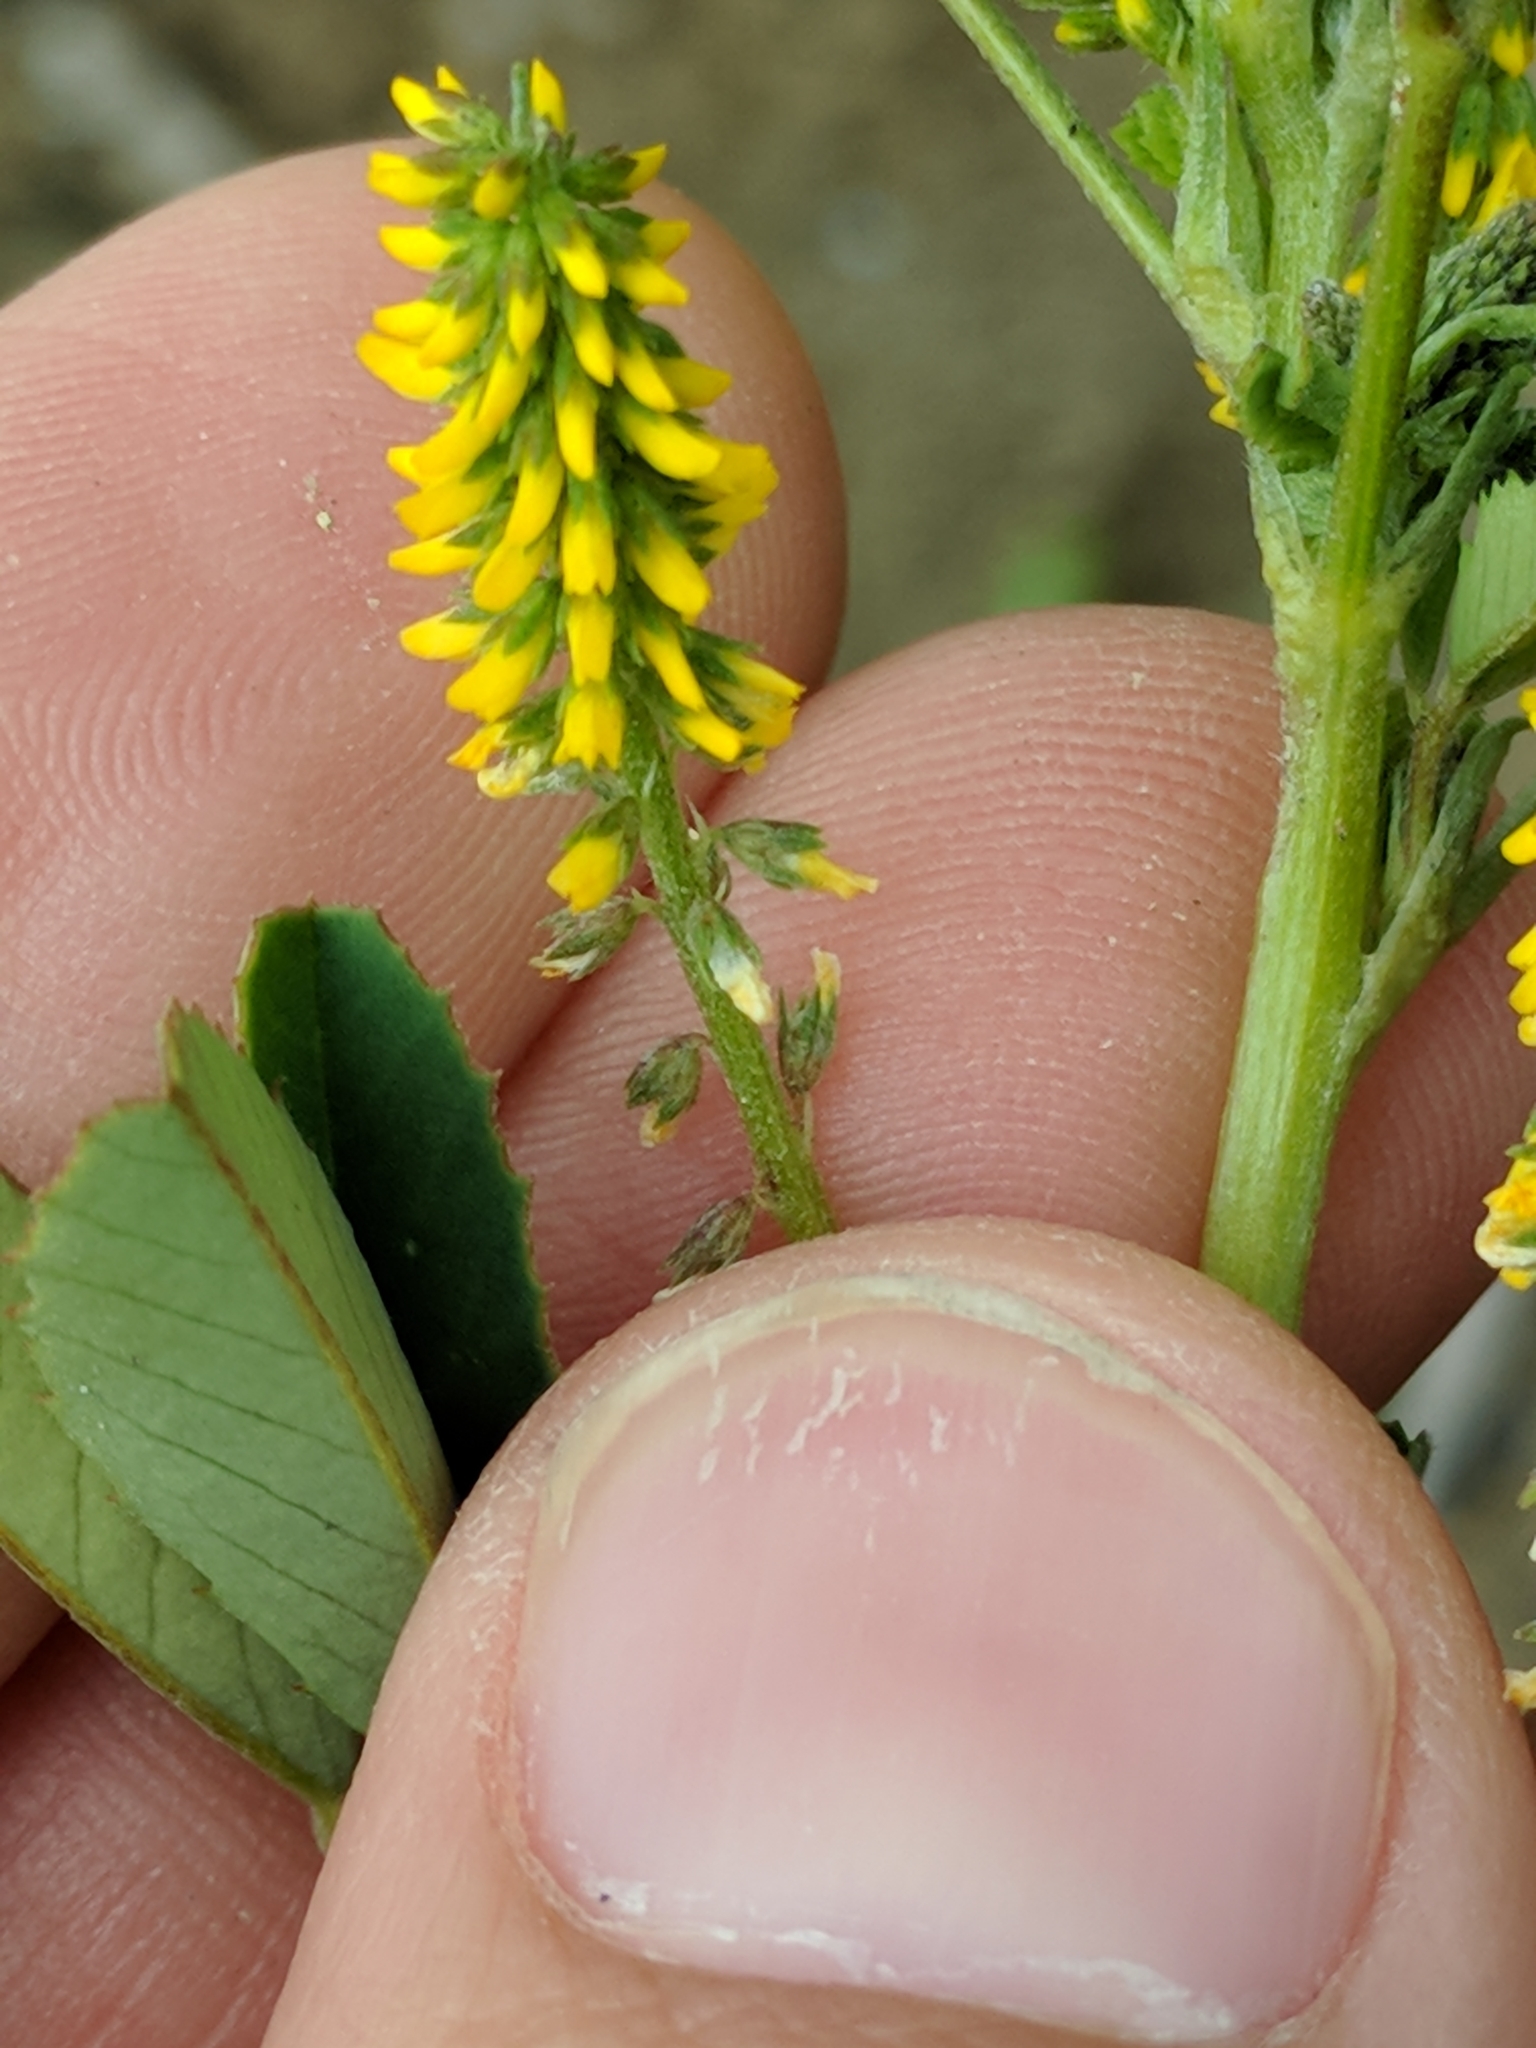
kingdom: Plantae
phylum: Tracheophyta
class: Magnoliopsida
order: Fabales
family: Fabaceae
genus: Melilotus
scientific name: Melilotus indicus
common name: Small melilot
